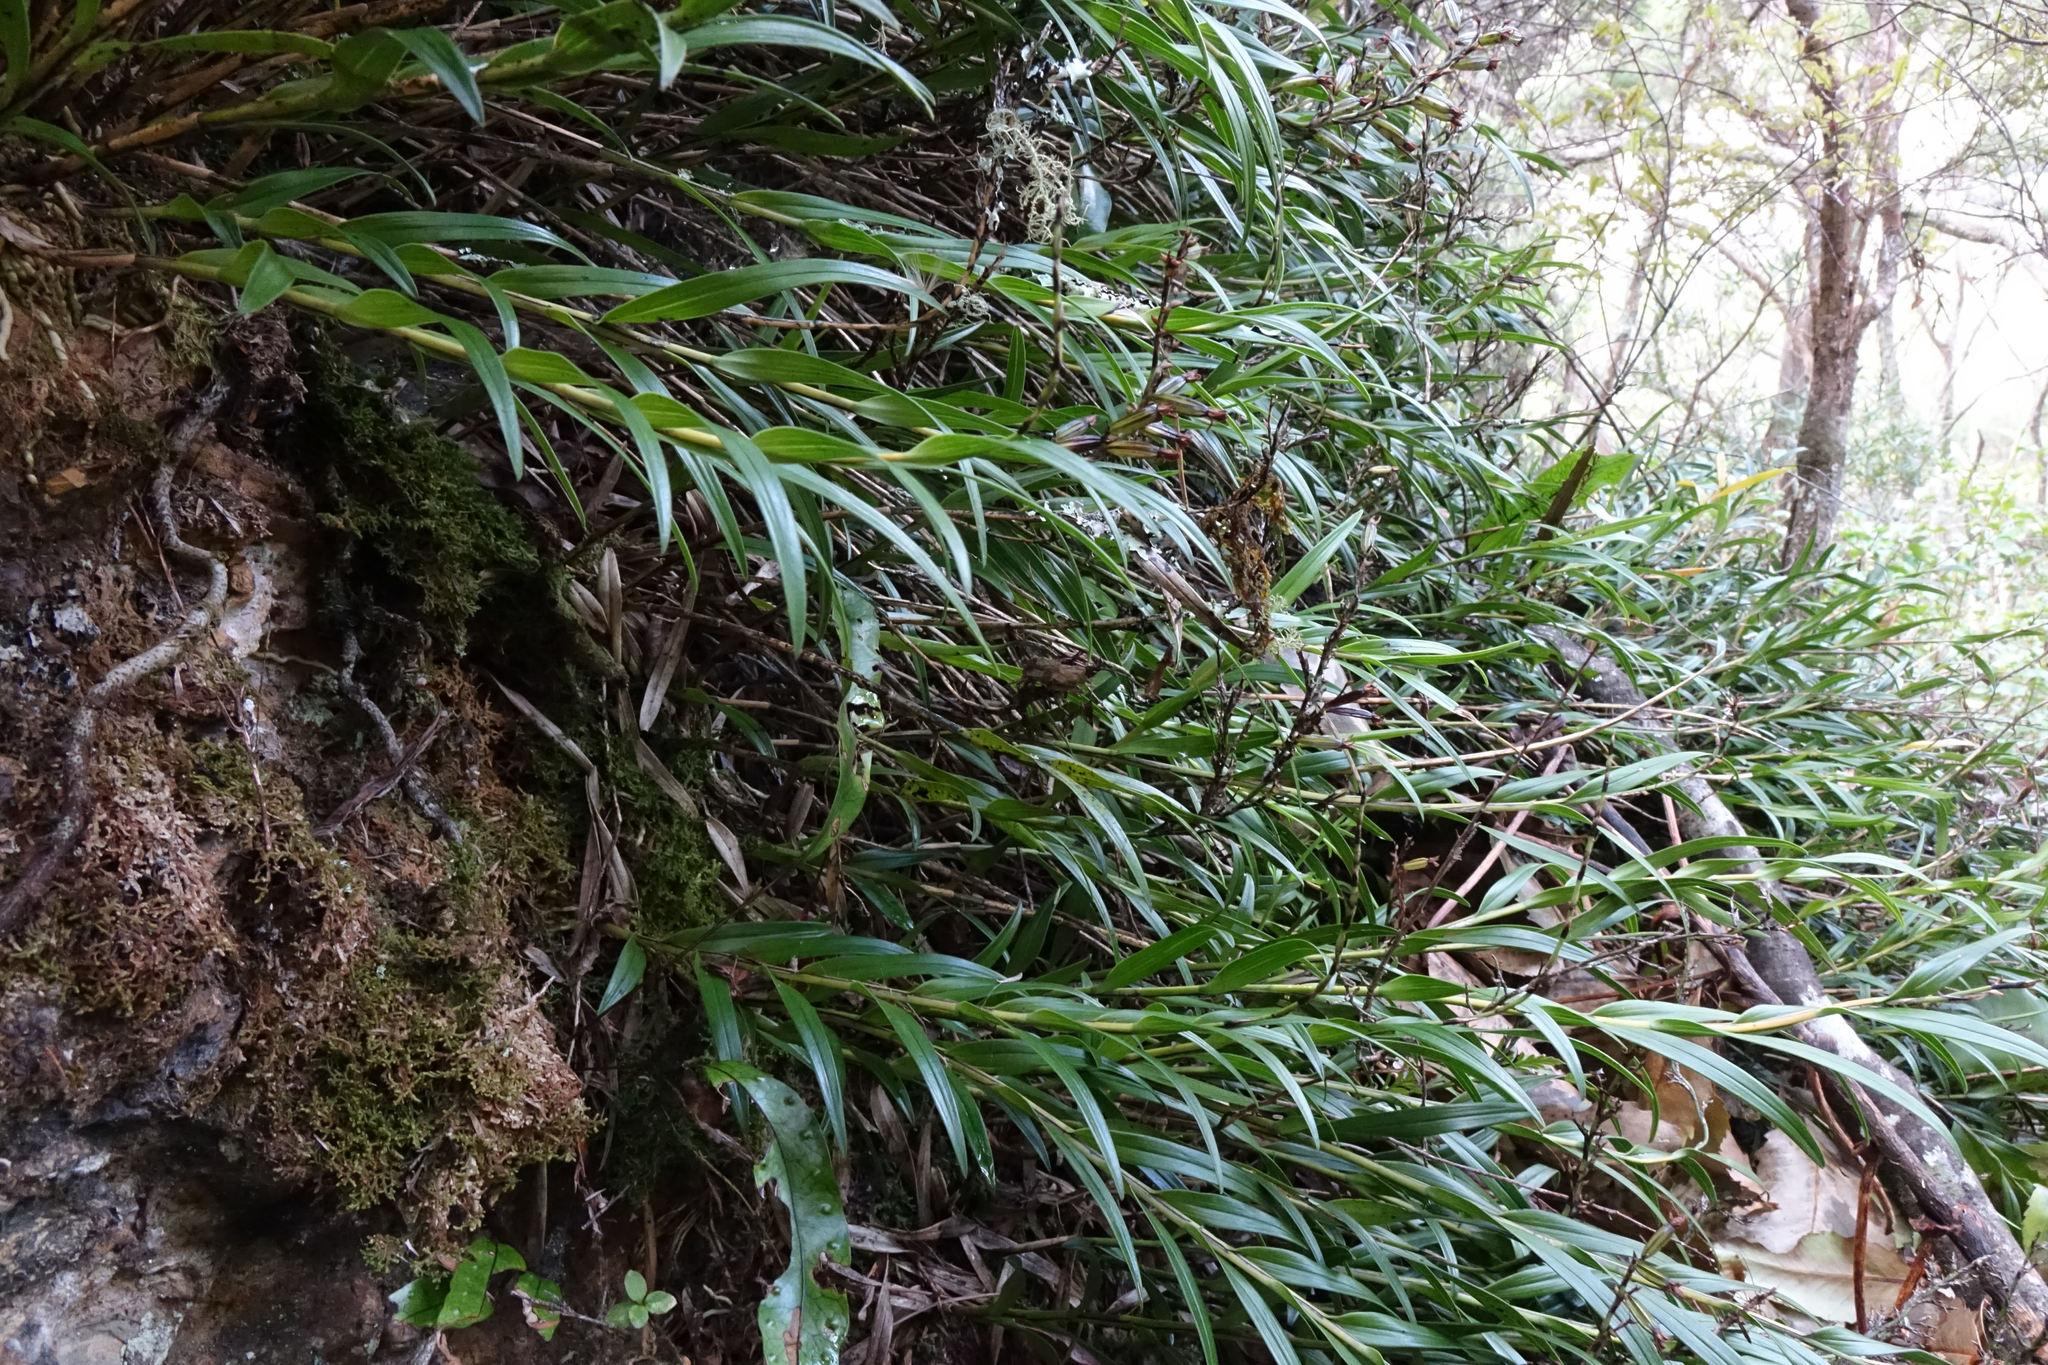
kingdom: Plantae
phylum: Tracheophyta
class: Liliopsida
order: Asparagales
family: Orchidaceae
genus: Earina
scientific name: Earina autumnalis
